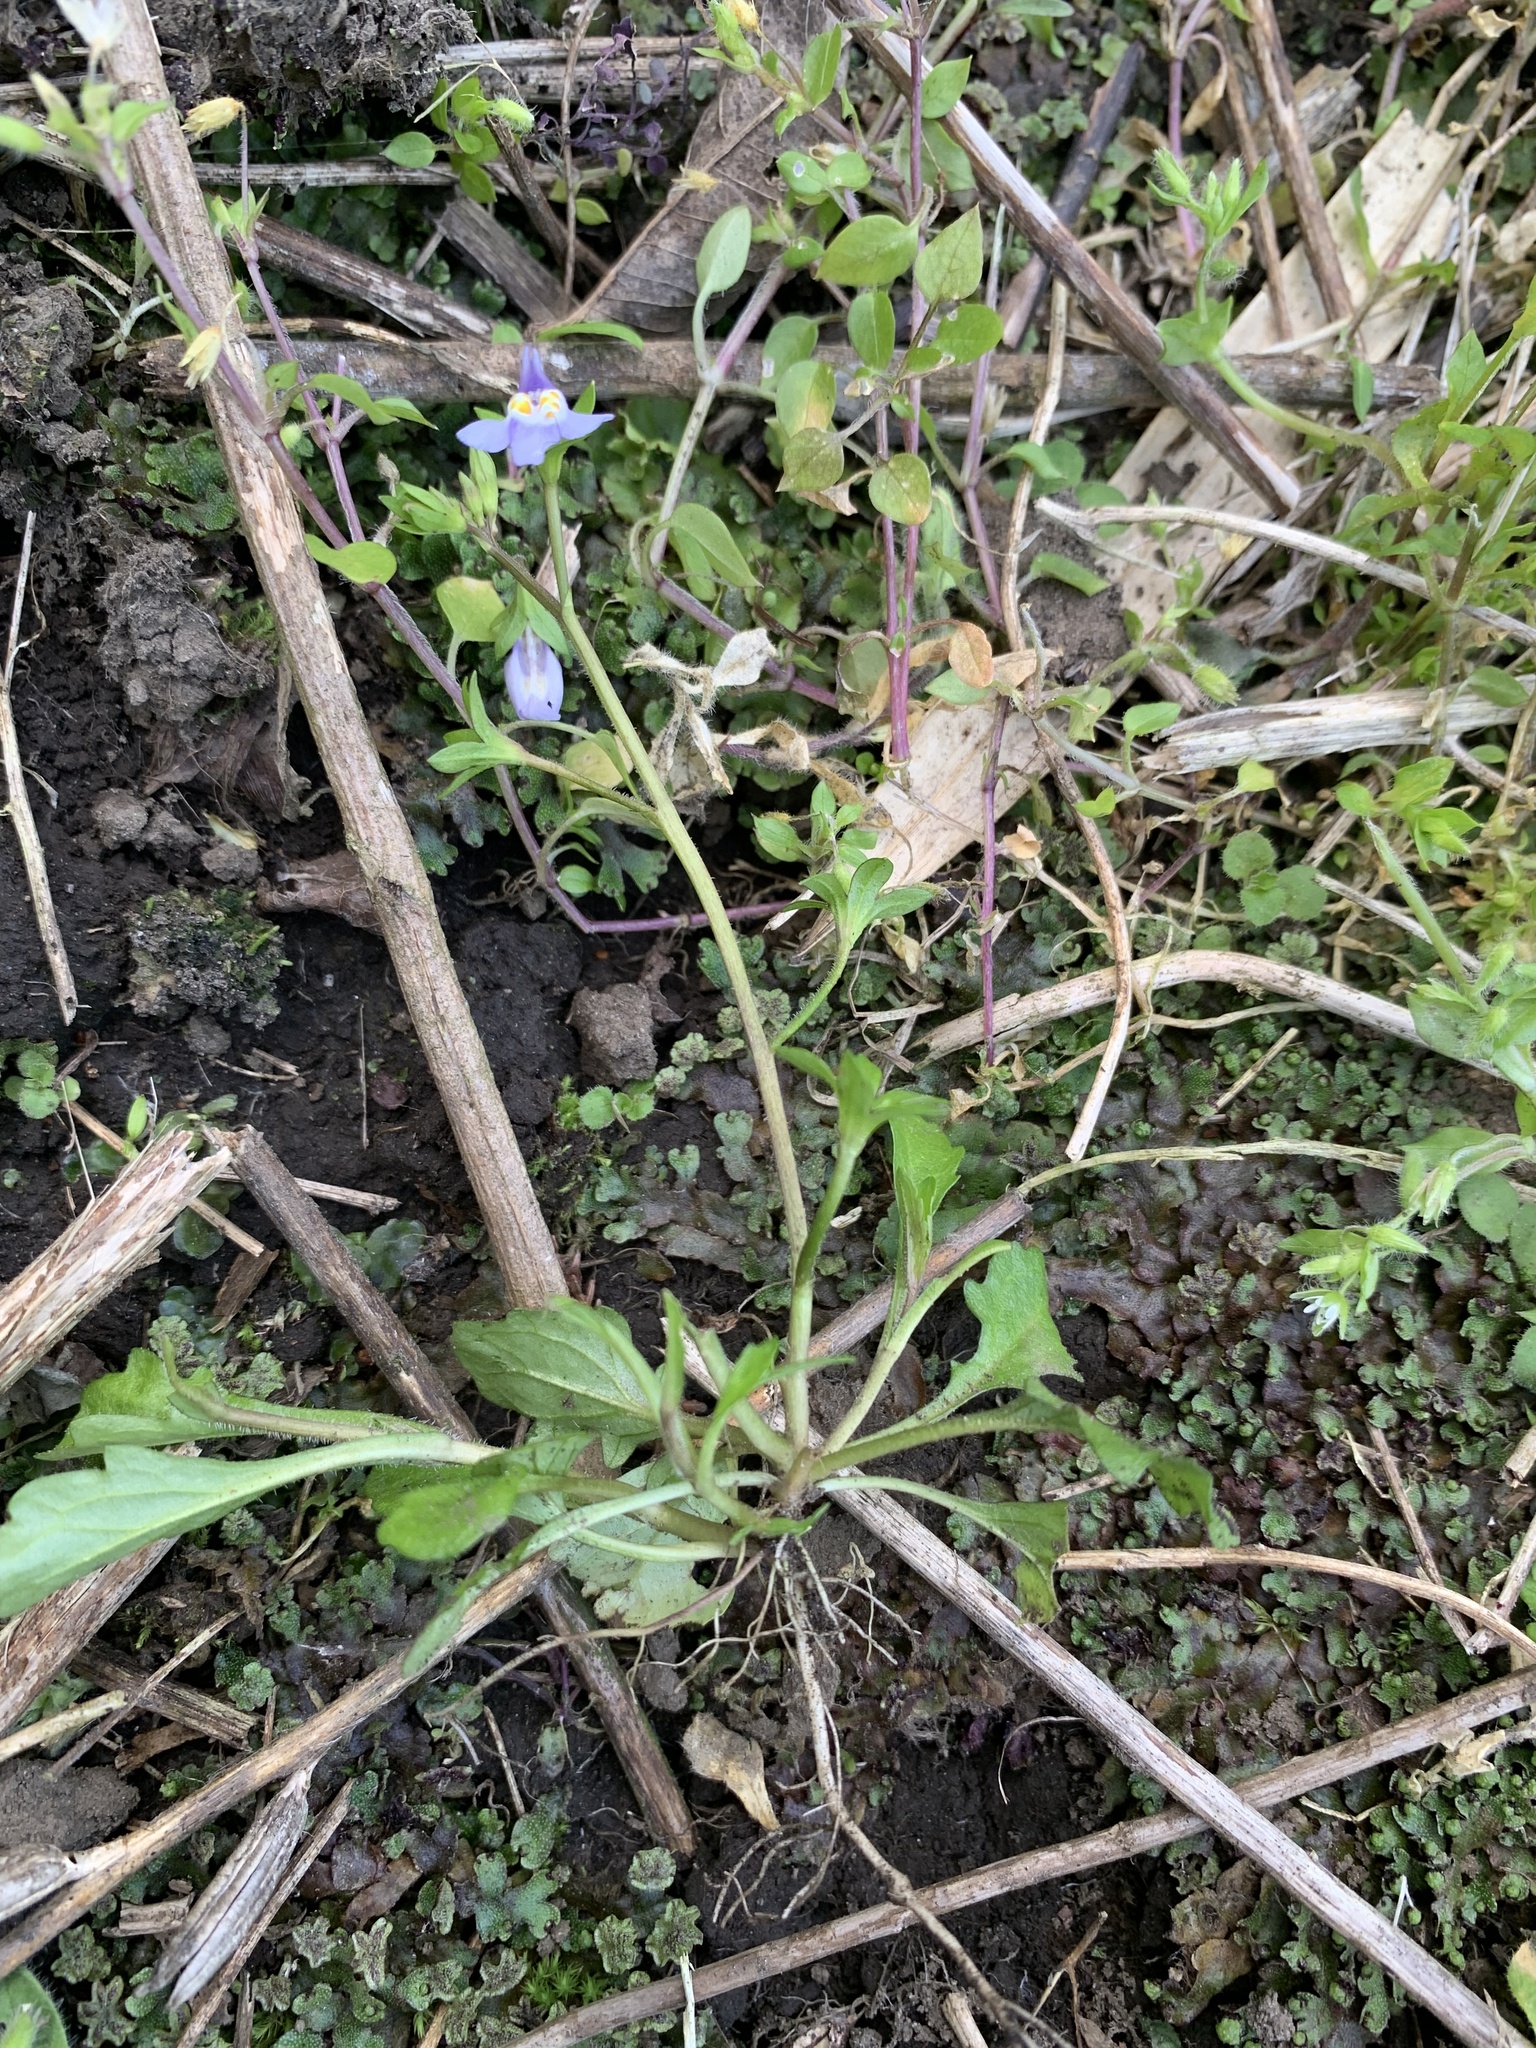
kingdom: Plantae
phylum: Tracheophyta
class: Magnoliopsida
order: Lamiales
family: Mazaceae
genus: Mazus
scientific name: Mazus miquelii
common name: Miquel's mazus
